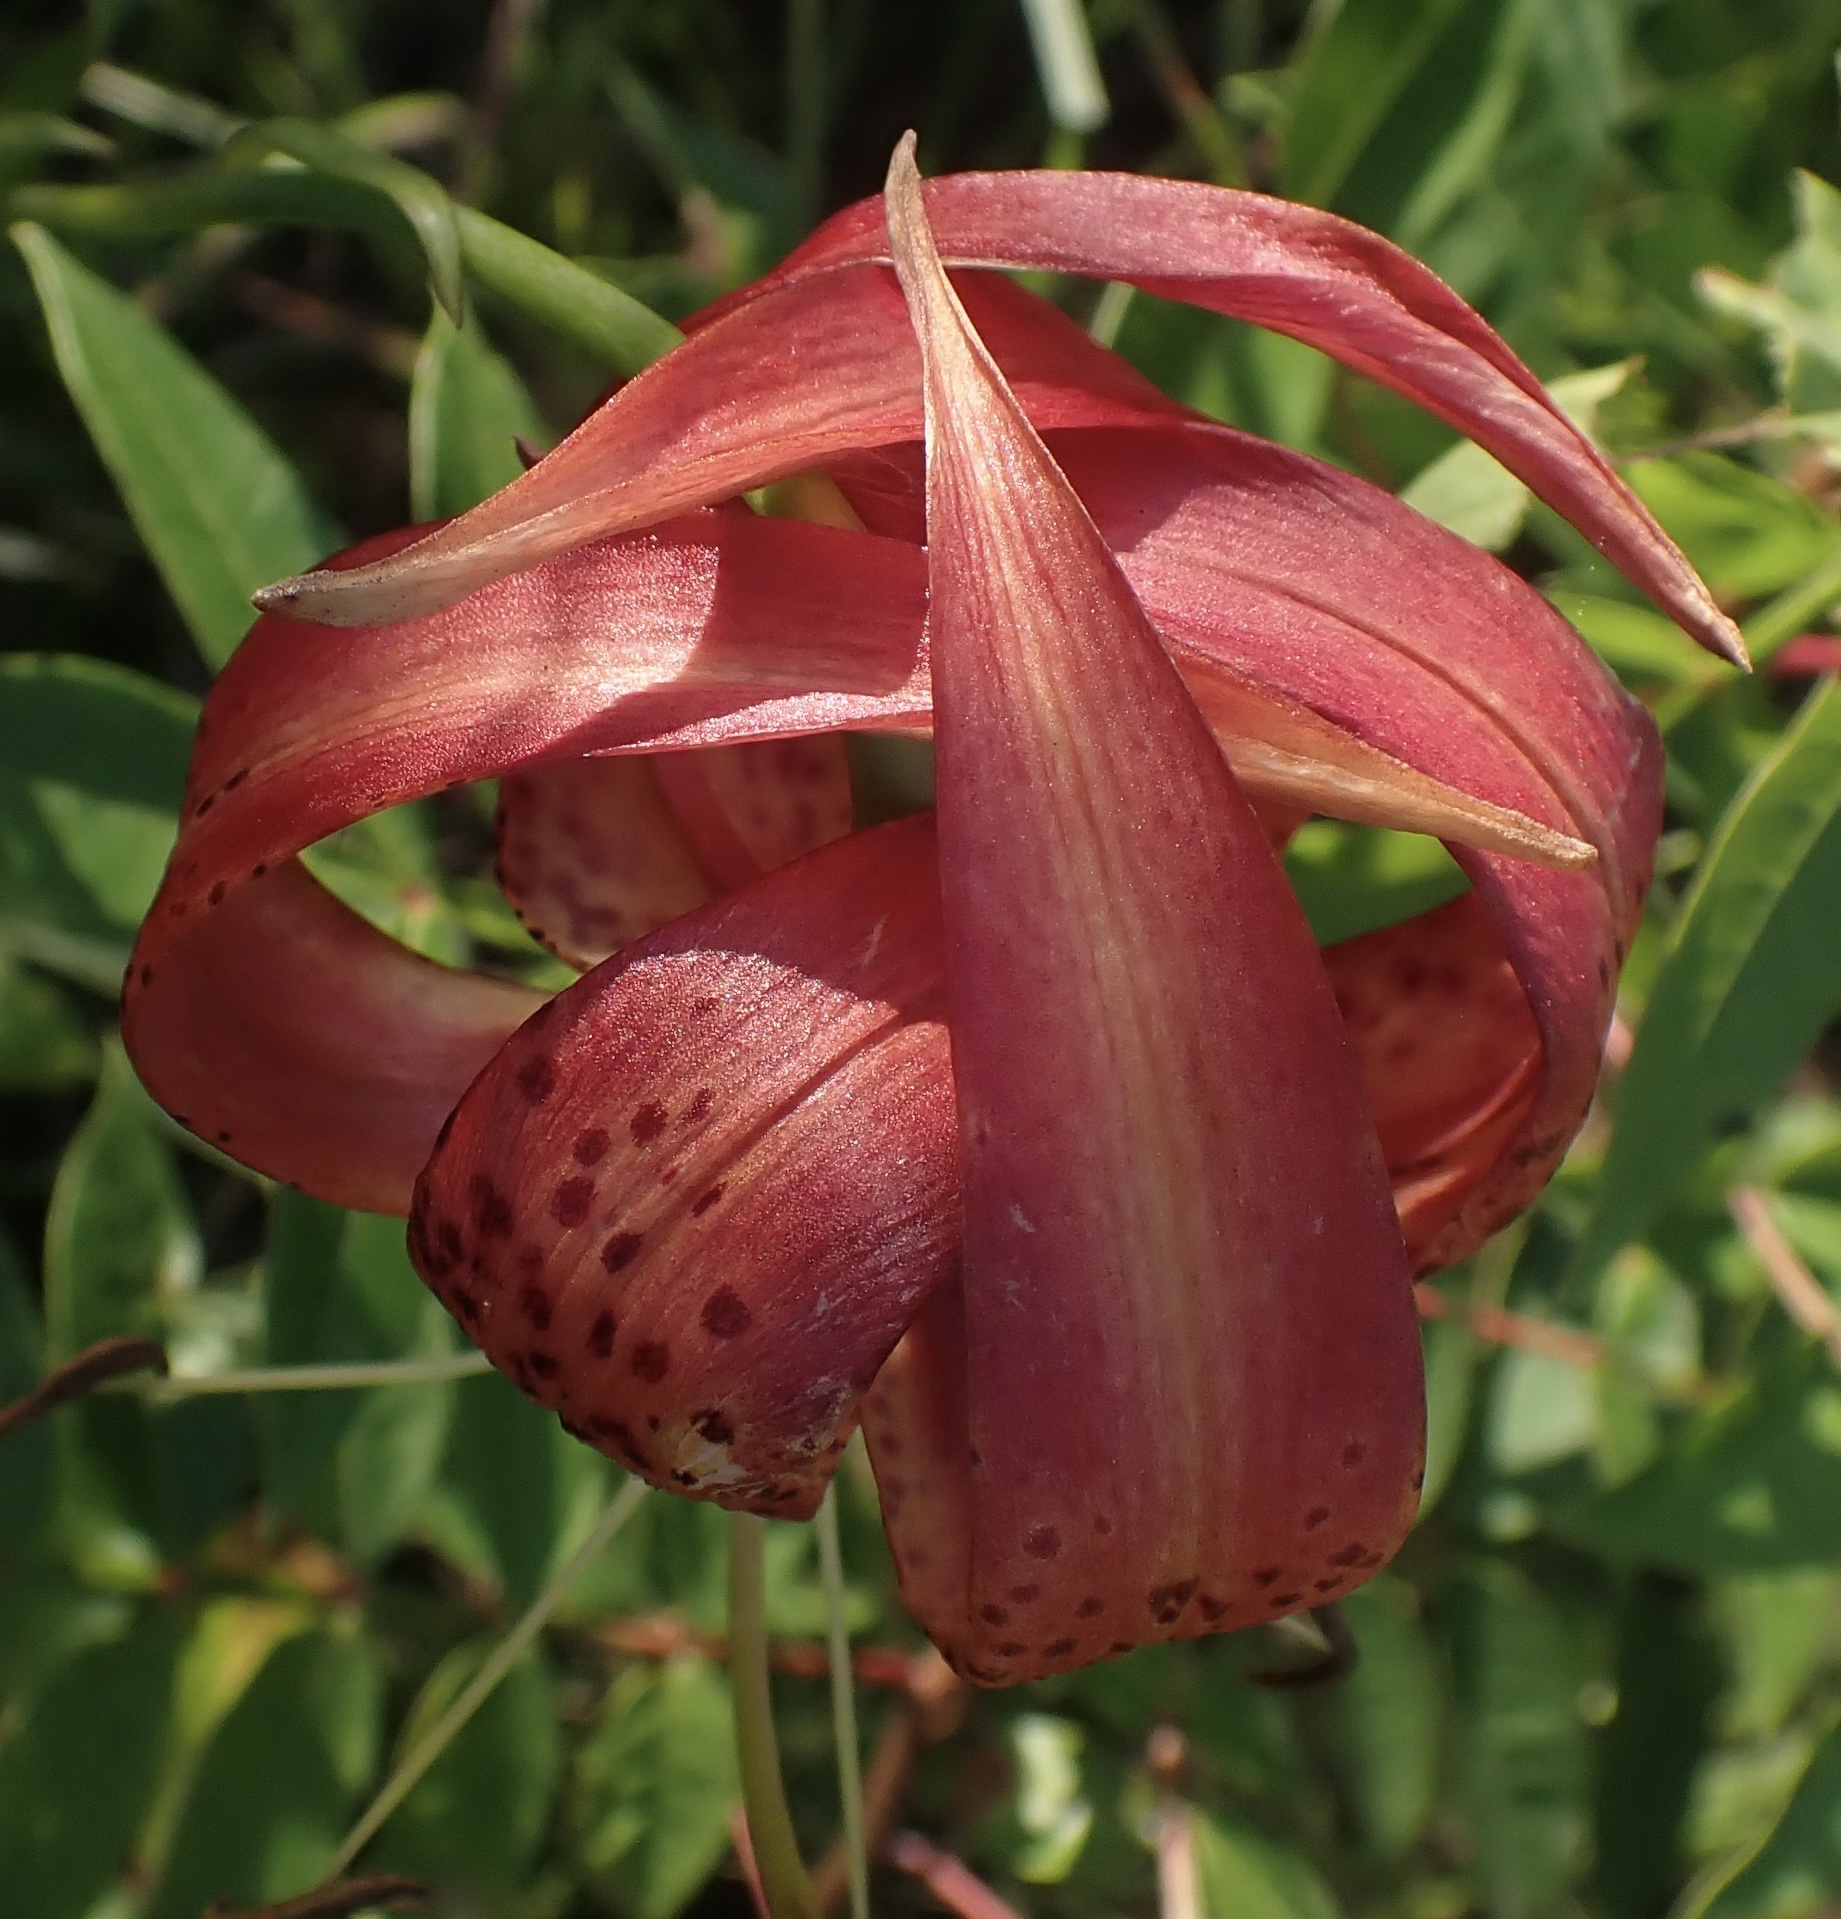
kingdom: Plantae
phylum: Tracheophyta
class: Liliopsida
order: Liliales
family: Liliaceae
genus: Lilium
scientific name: Lilium superbum
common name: American turk's-cap lily
